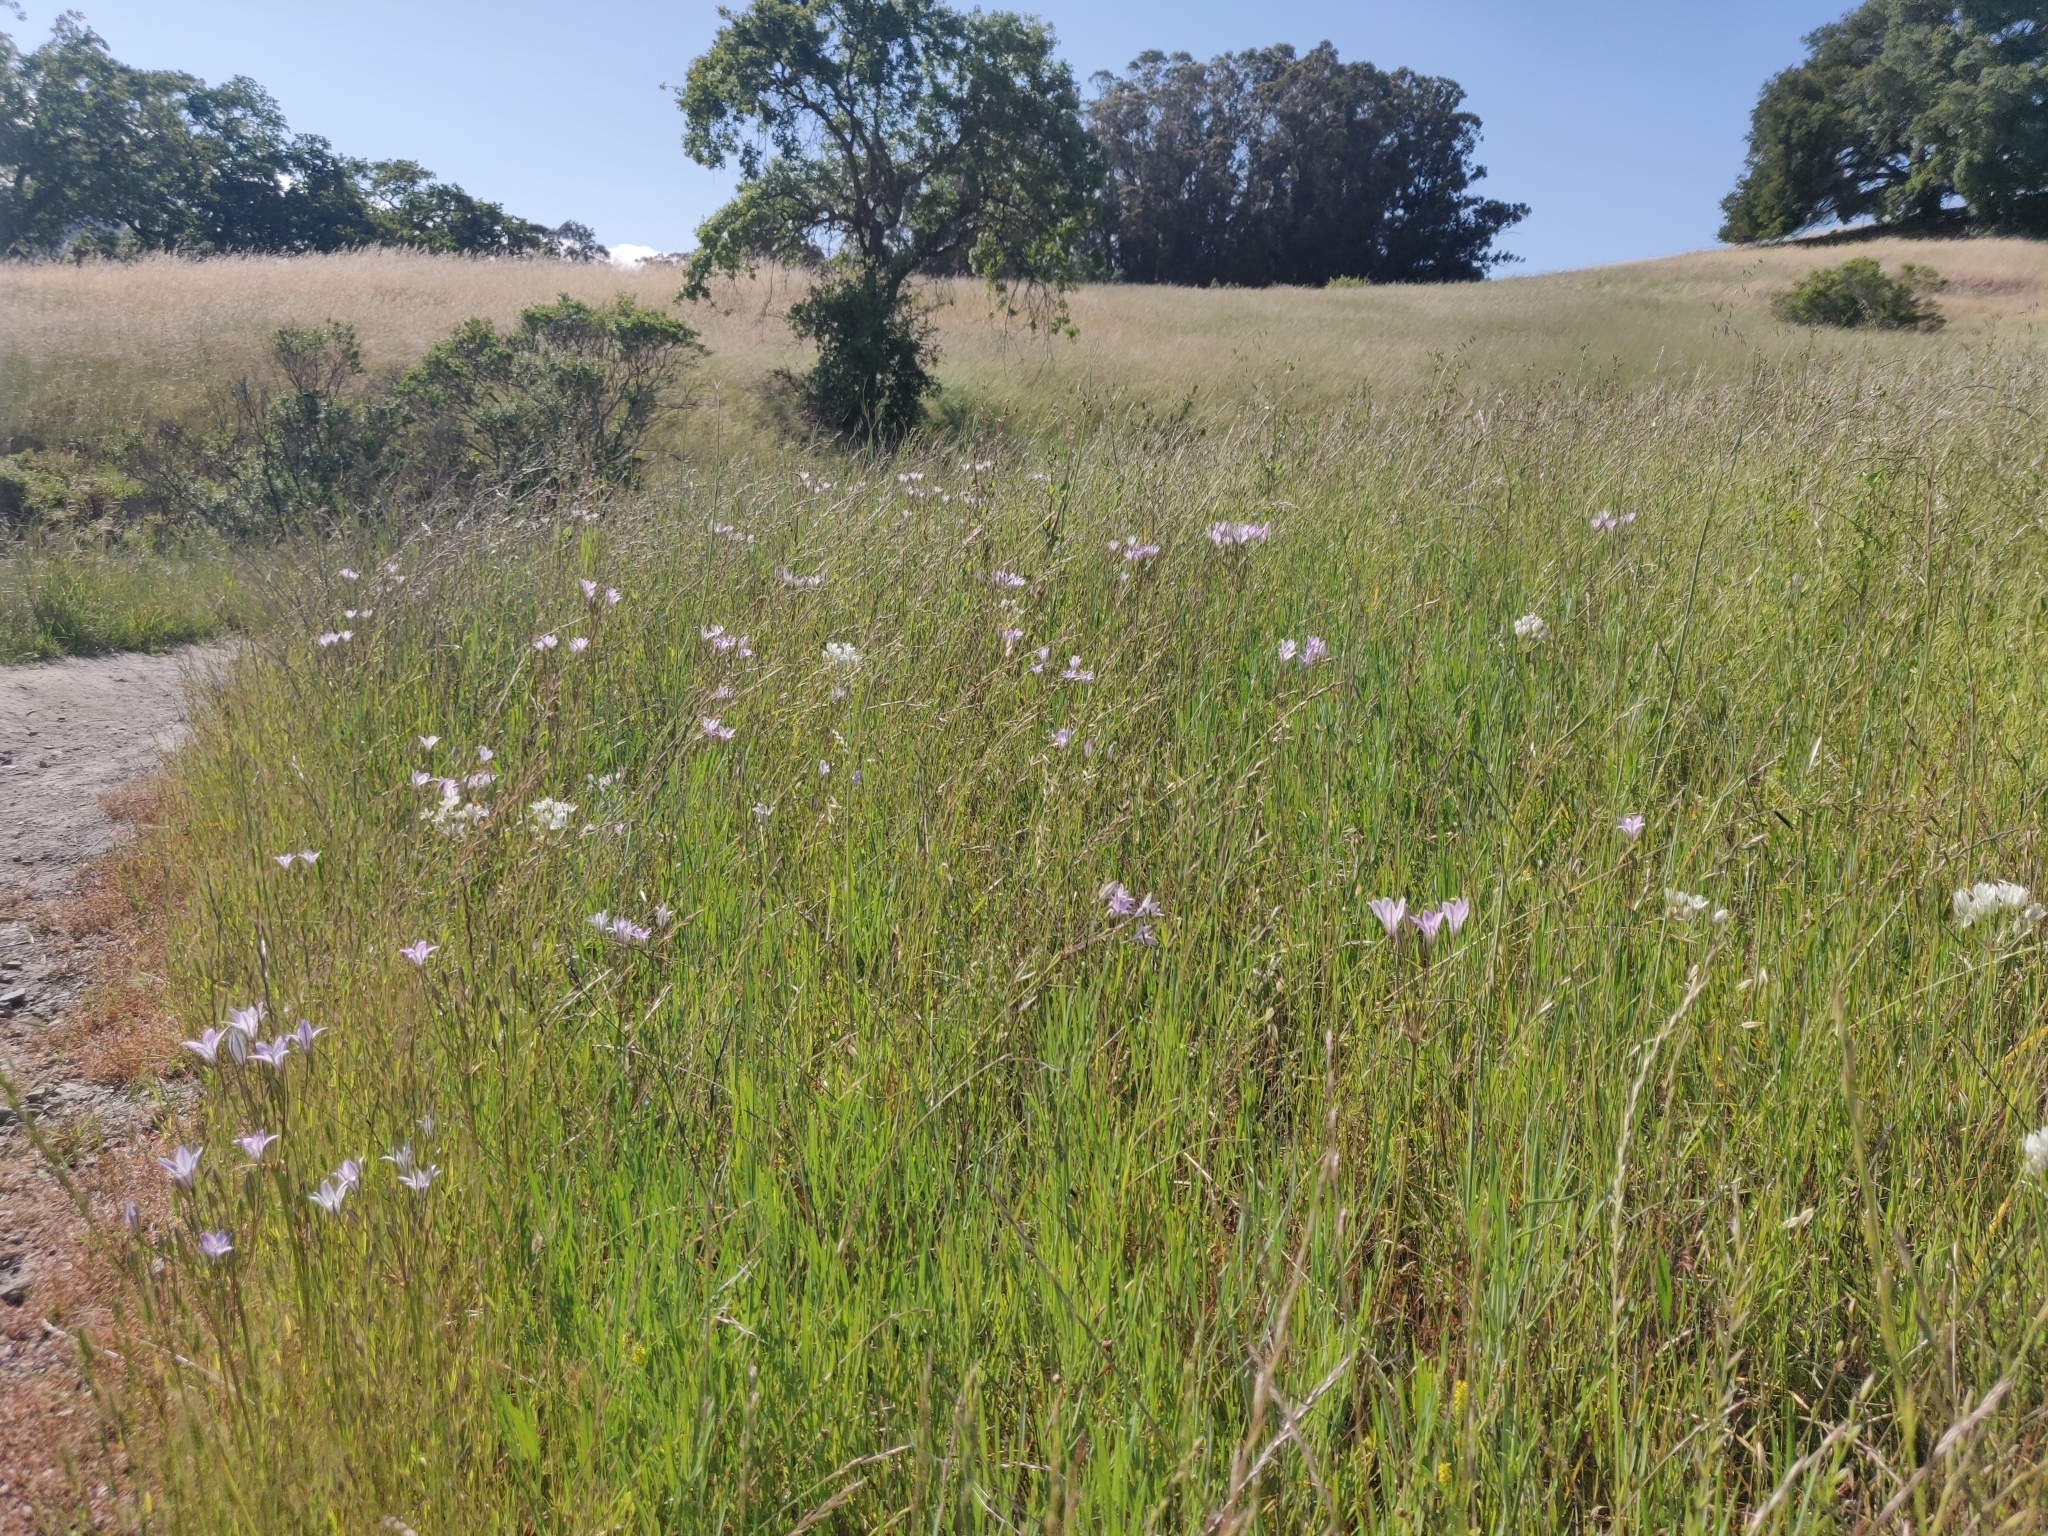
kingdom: Plantae
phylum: Tracheophyta
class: Liliopsida
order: Asparagales
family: Asparagaceae
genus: Triteleia
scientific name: Triteleia hyacinthina
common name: White brodiaea
